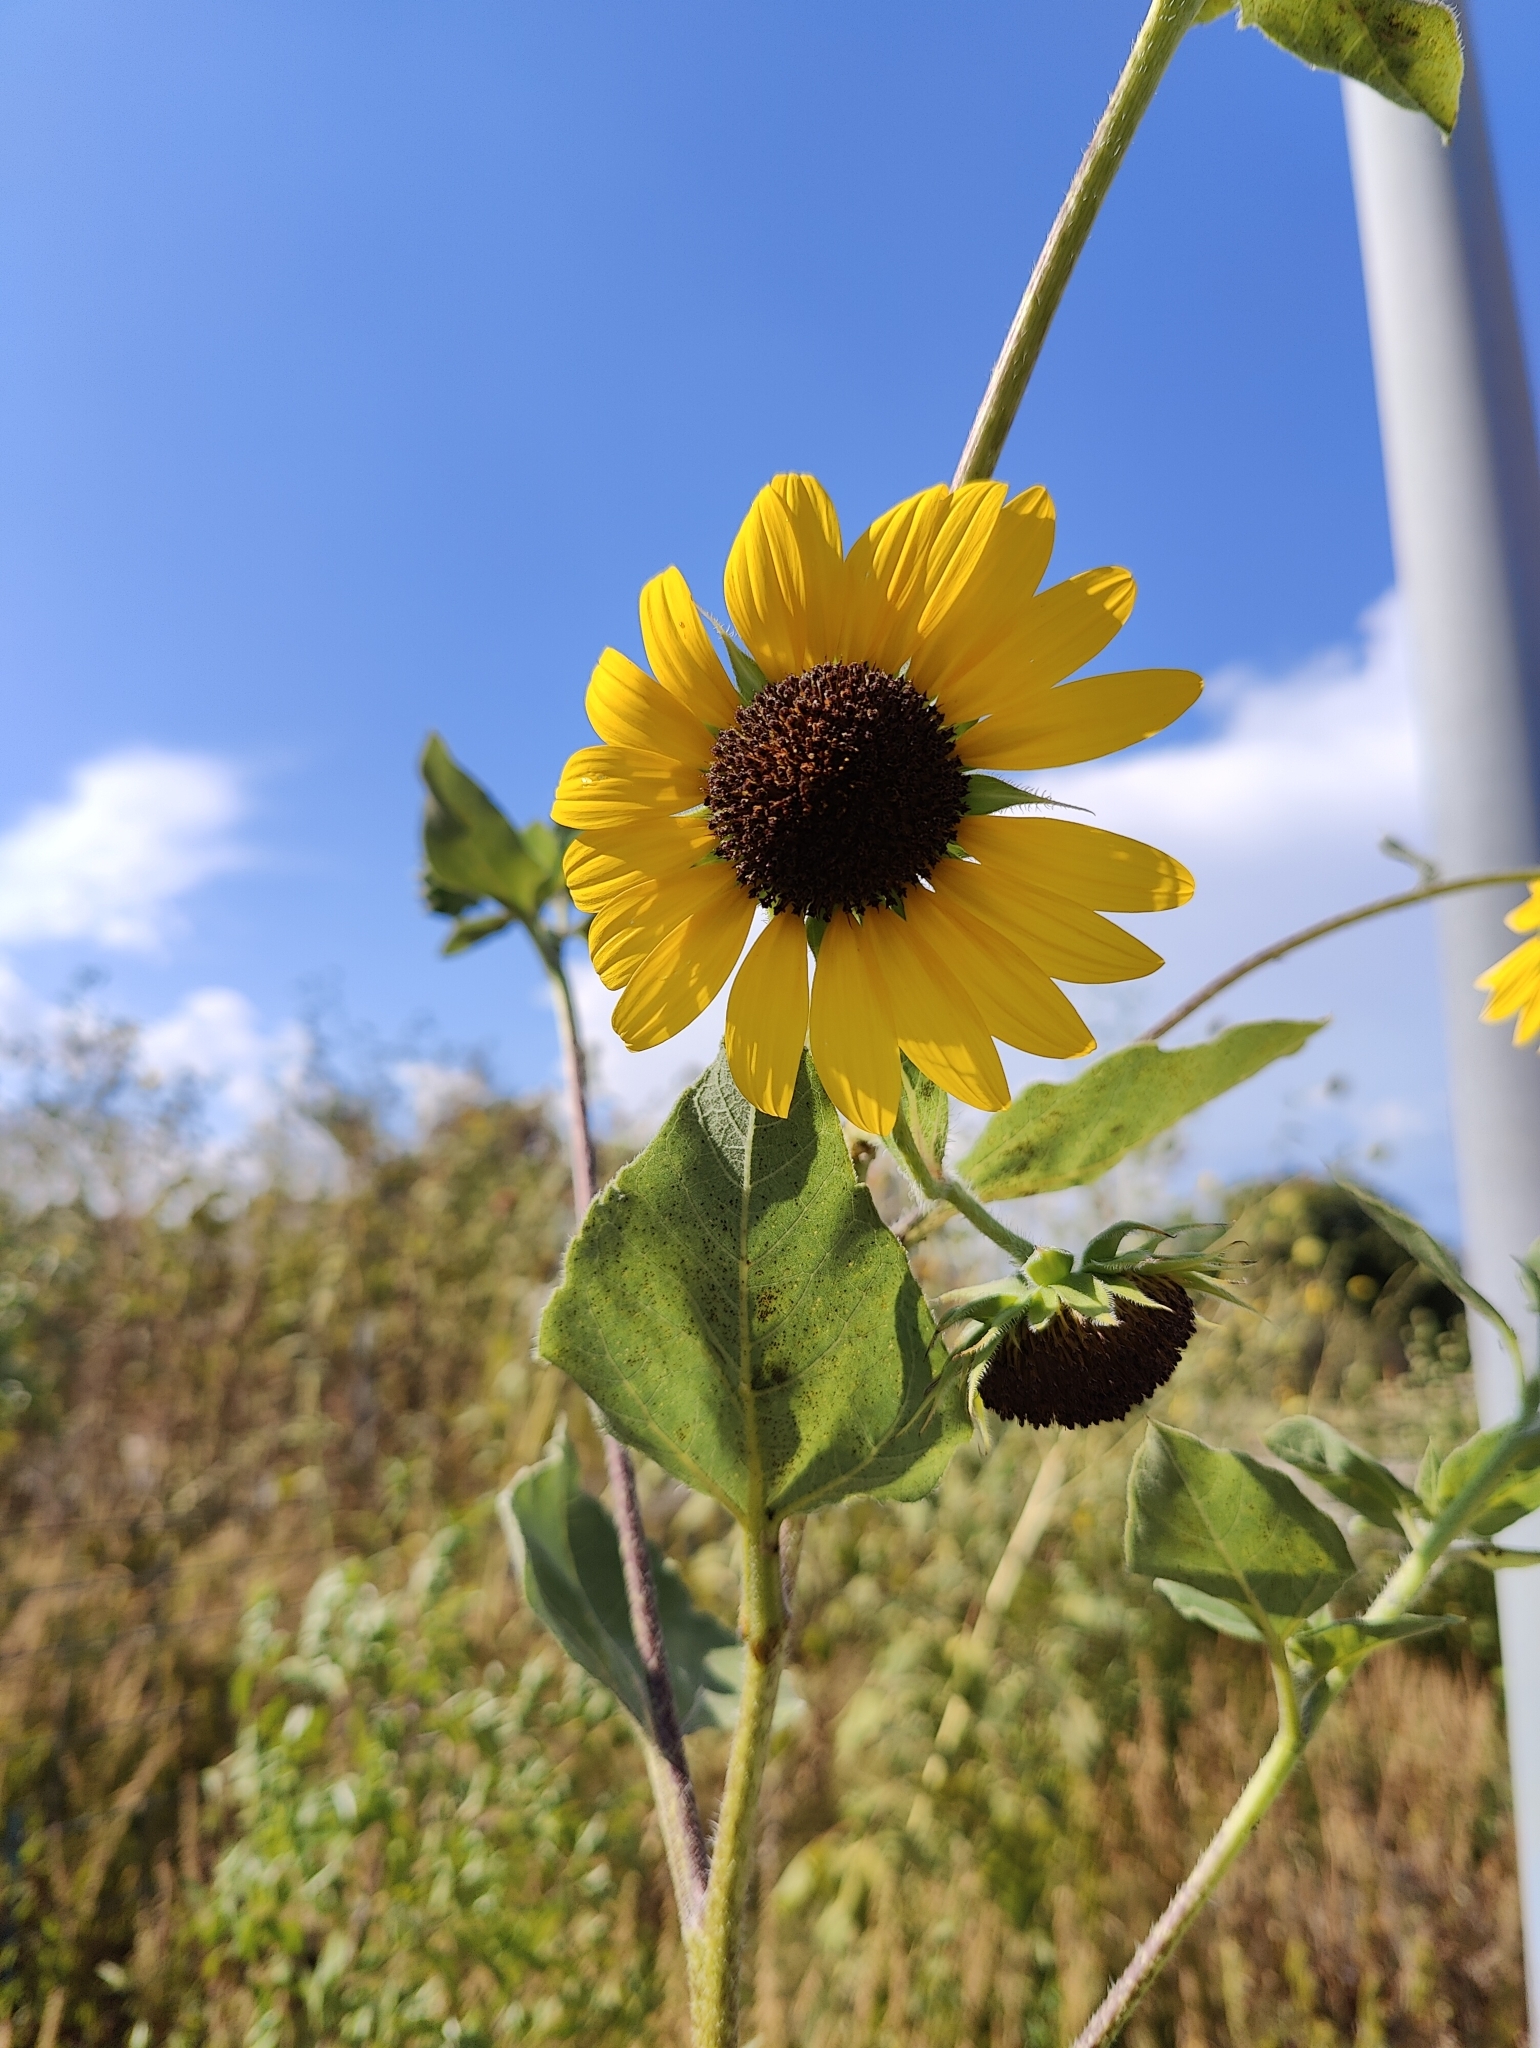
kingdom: Plantae
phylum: Tracheophyta
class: Magnoliopsida
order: Asterales
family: Asteraceae
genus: Helianthus
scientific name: Helianthus annuus
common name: Sunflower
